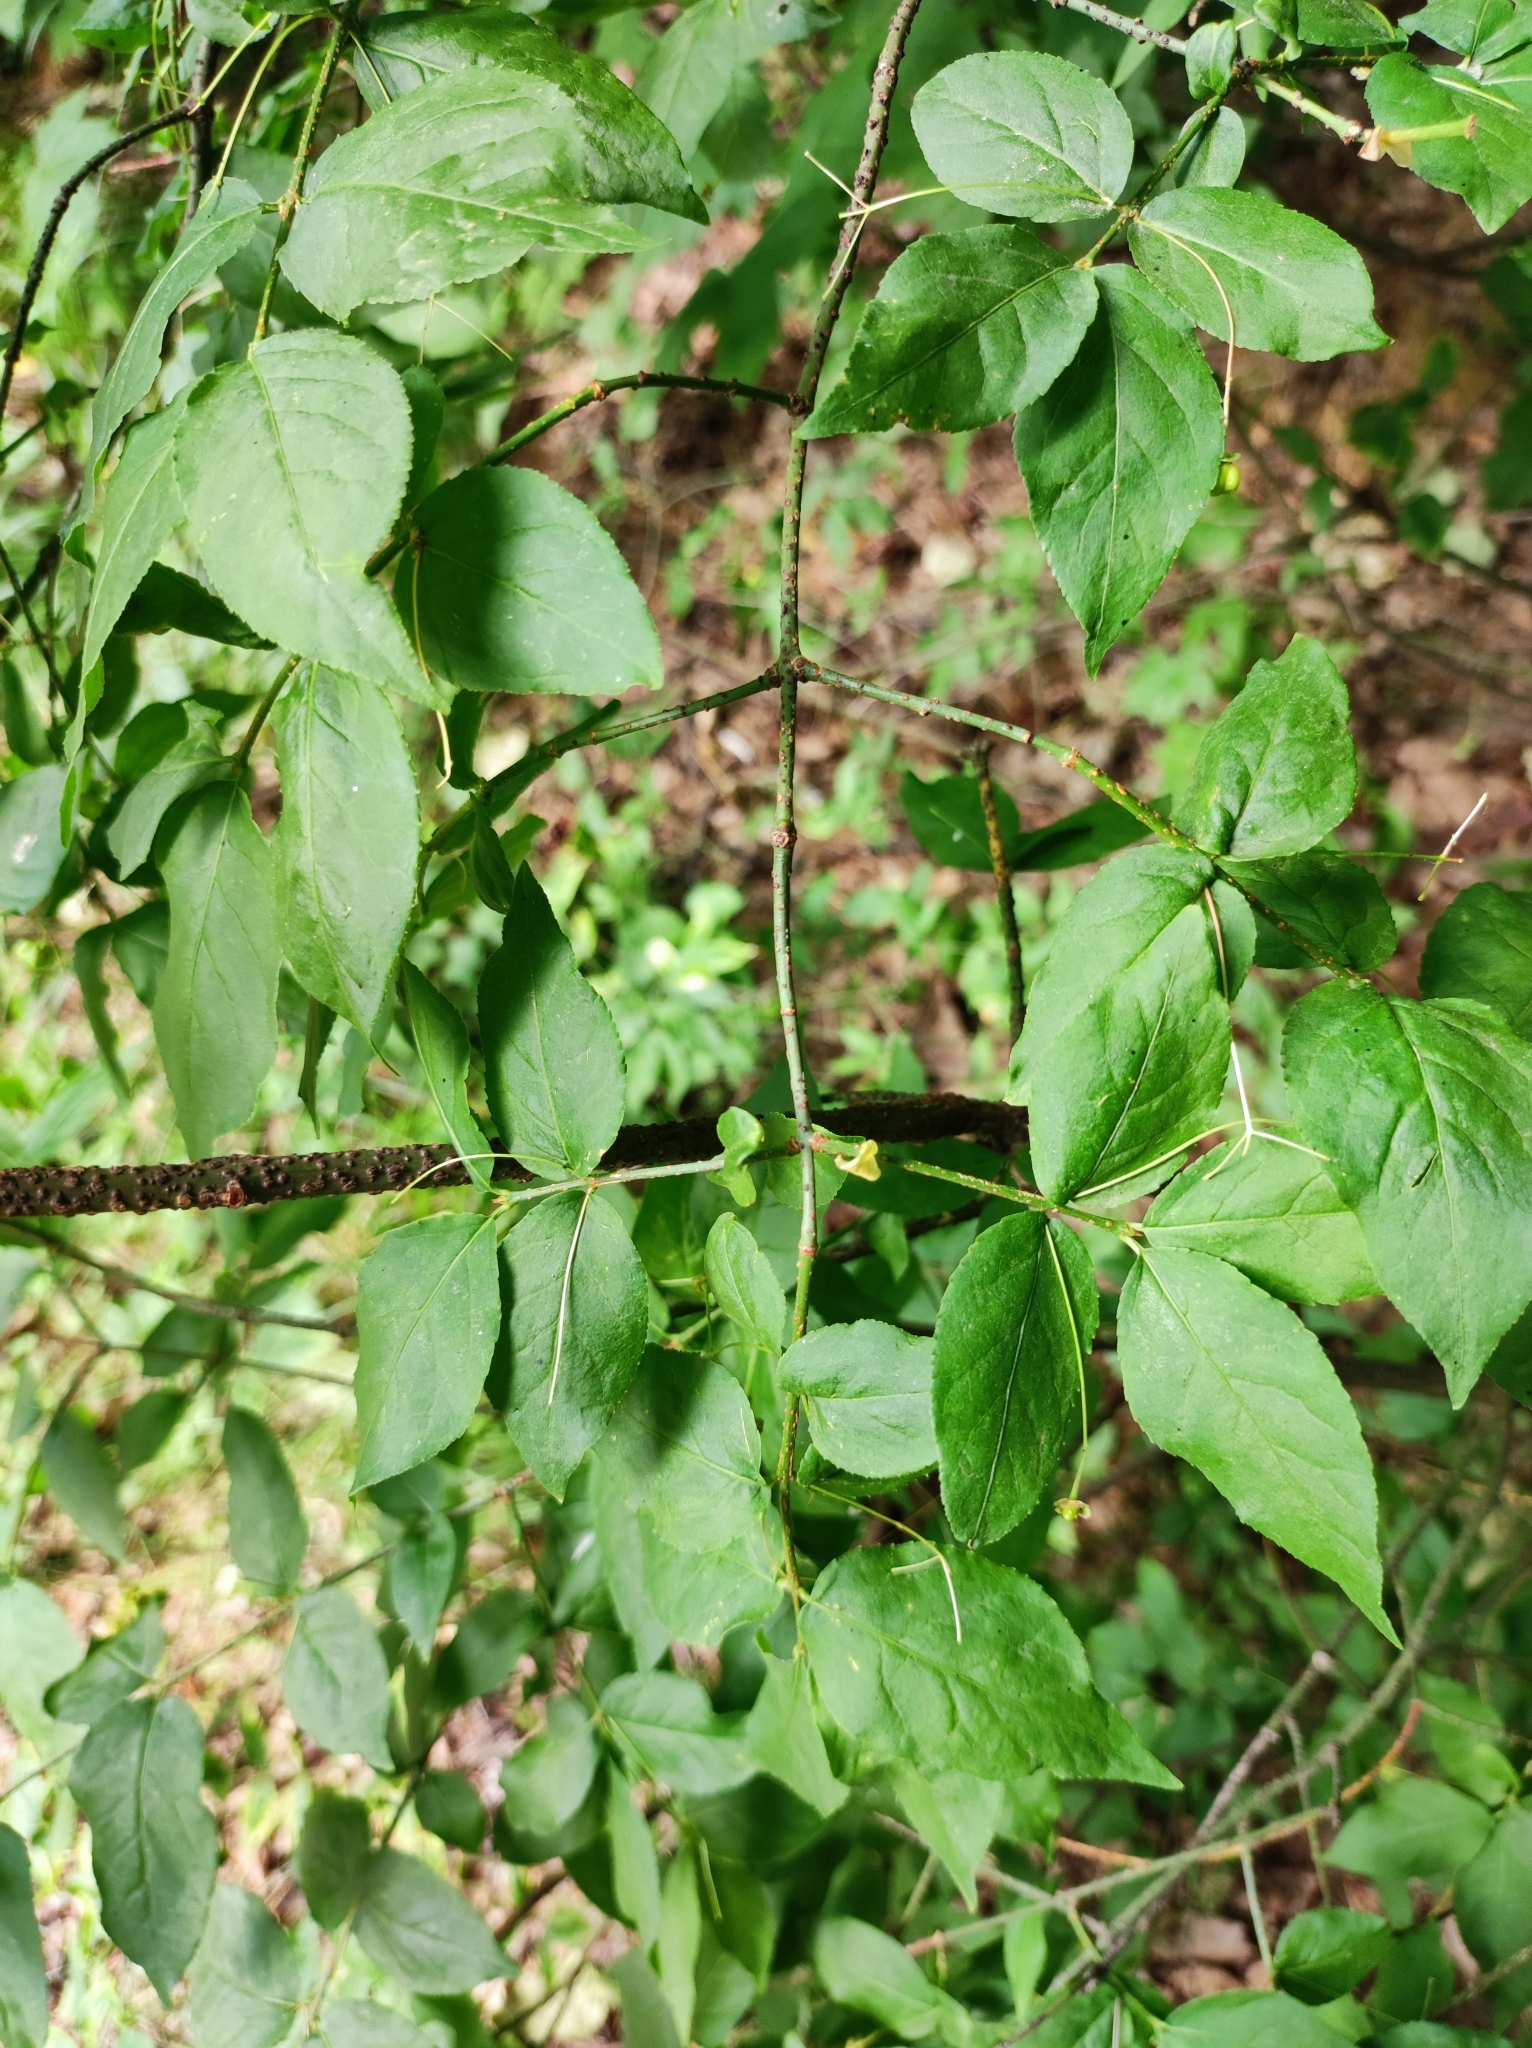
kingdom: Plantae
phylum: Tracheophyta
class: Magnoliopsida
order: Celastrales
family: Celastraceae
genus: Euonymus
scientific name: Euonymus verrucosus
